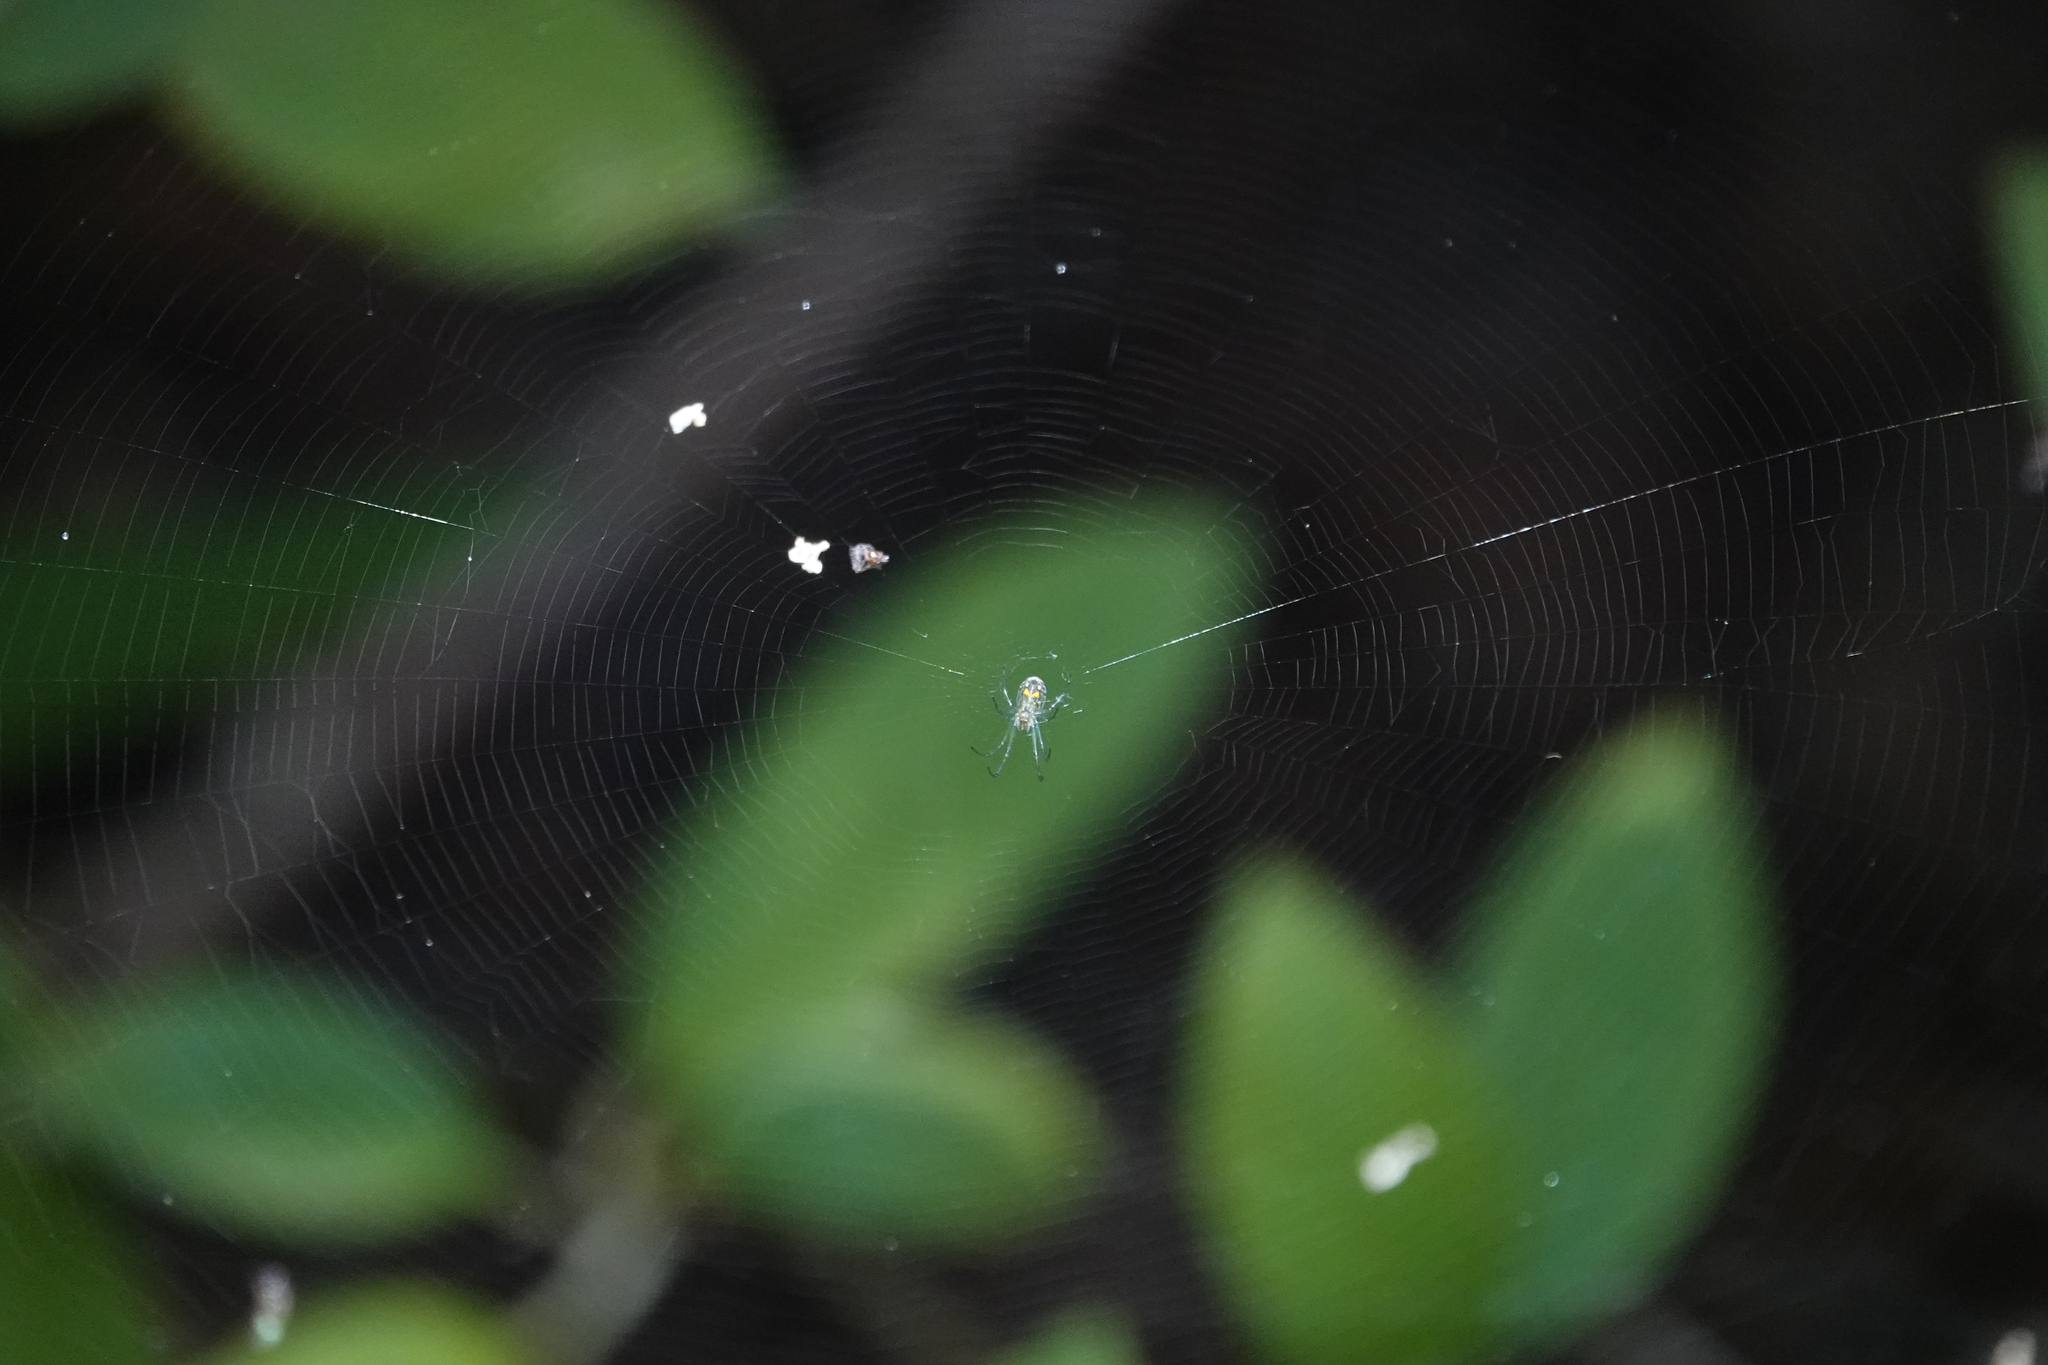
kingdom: Animalia
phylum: Arthropoda
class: Arachnida
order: Araneae
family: Tetragnathidae
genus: Leucauge
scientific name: Leucauge venusta
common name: Longjawed orb weavers
